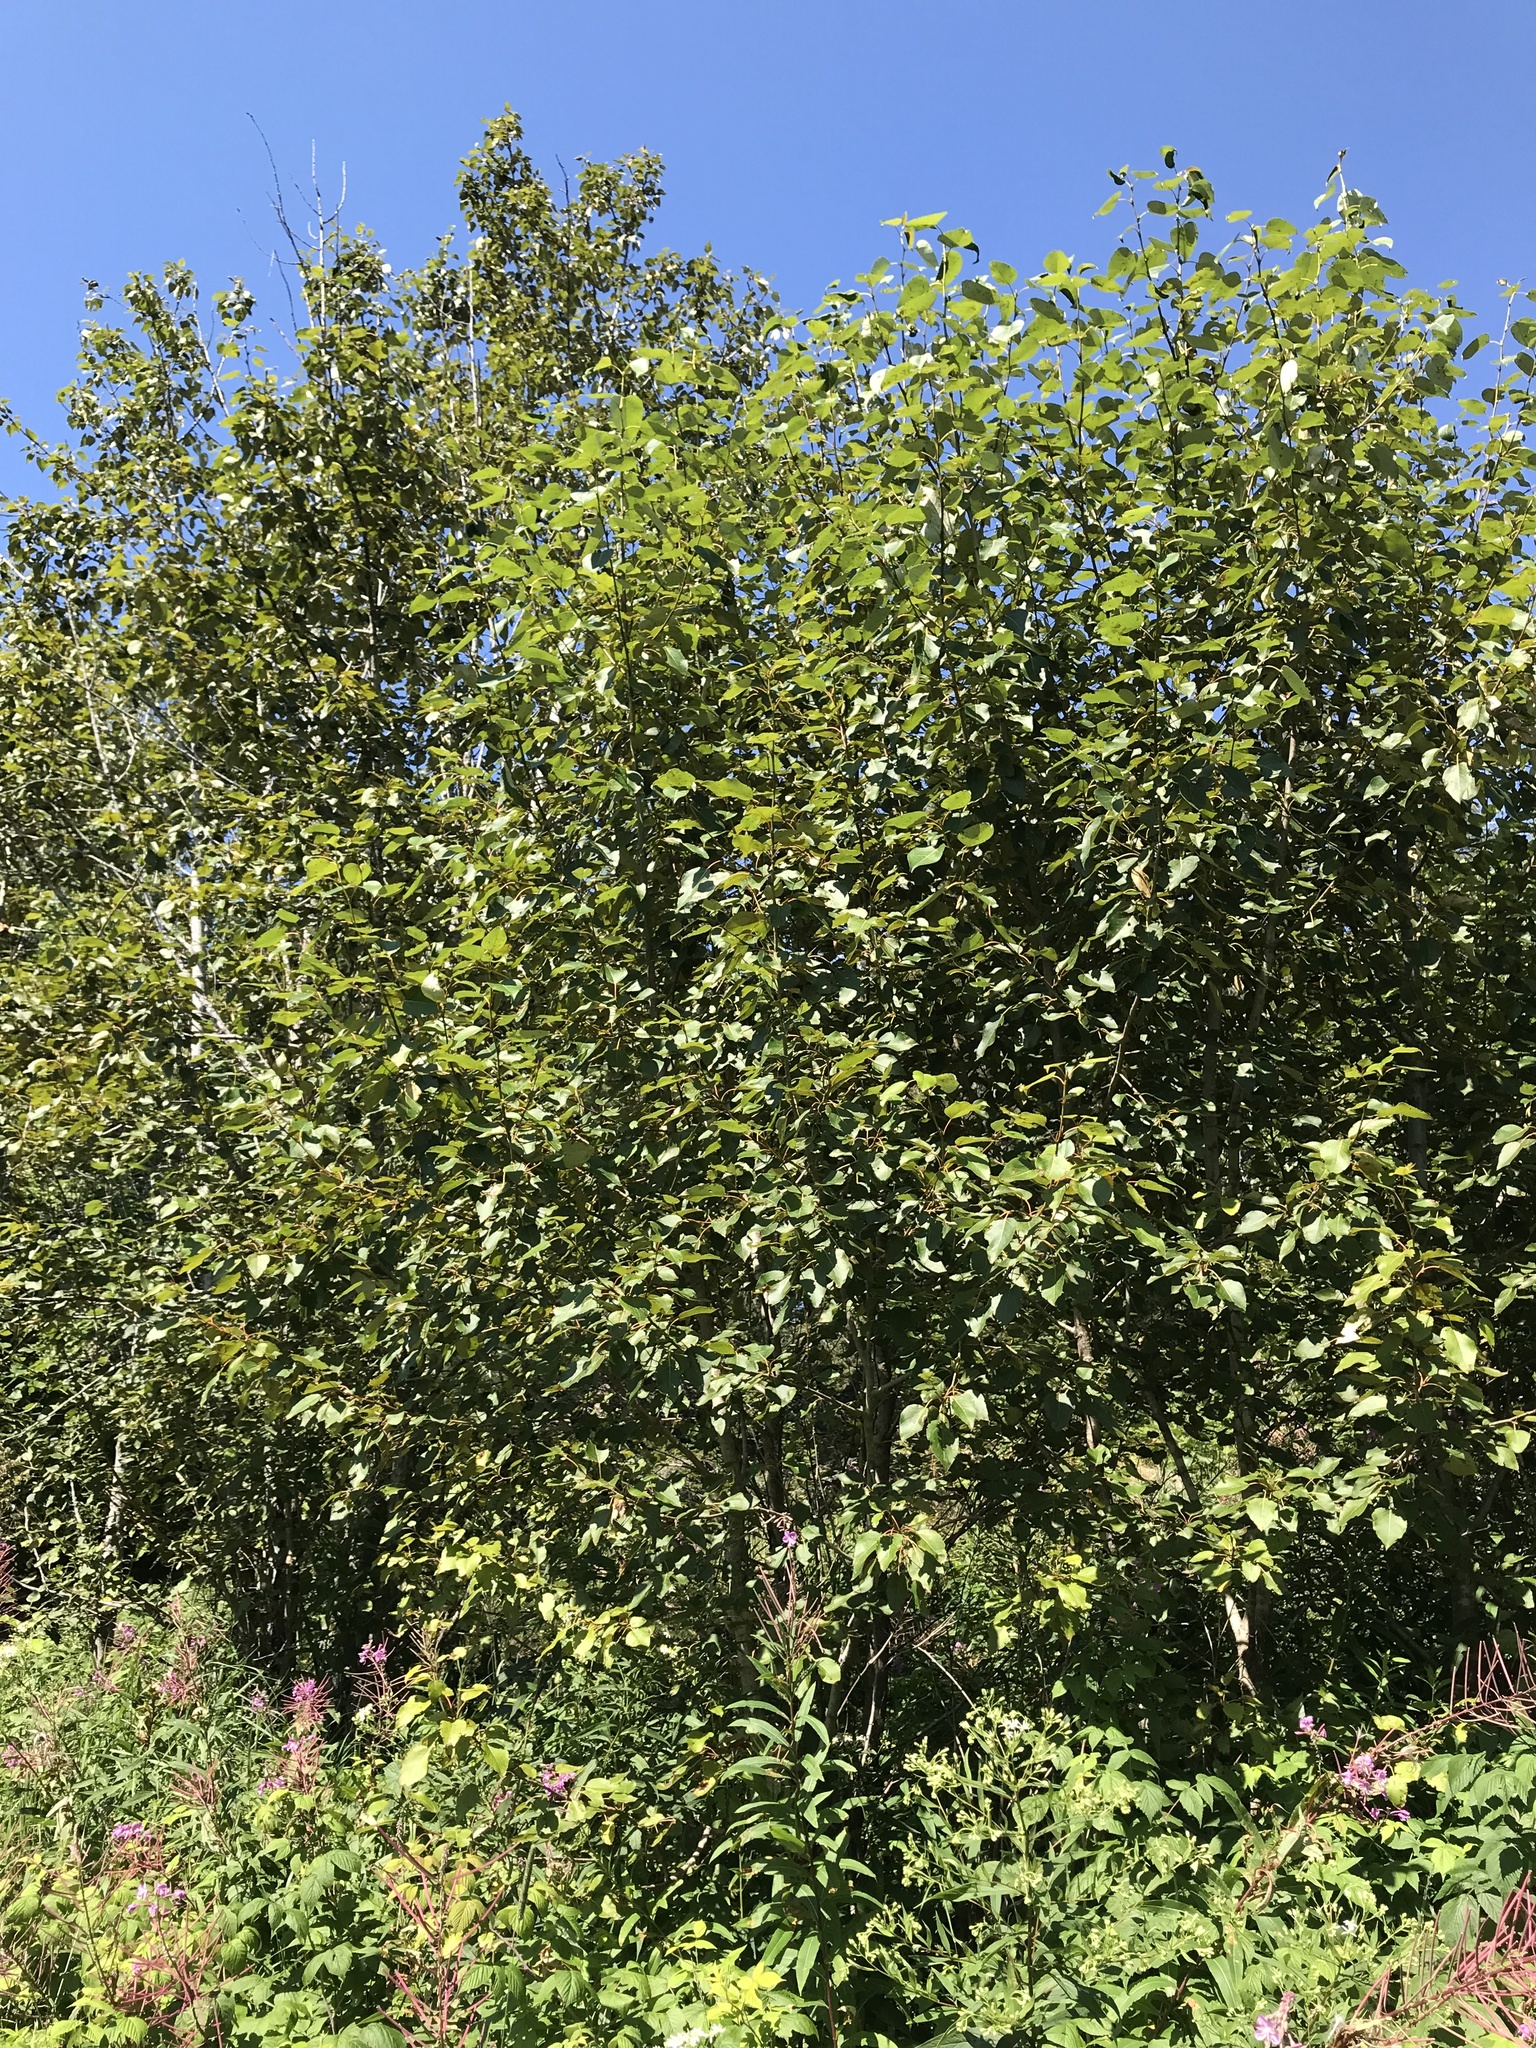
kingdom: Plantae
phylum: Tracheophyta
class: Magnoliopsida
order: Malpighiales
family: Salicaceae
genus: Populus
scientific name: Populus balsamifera
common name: Balsam poplar
